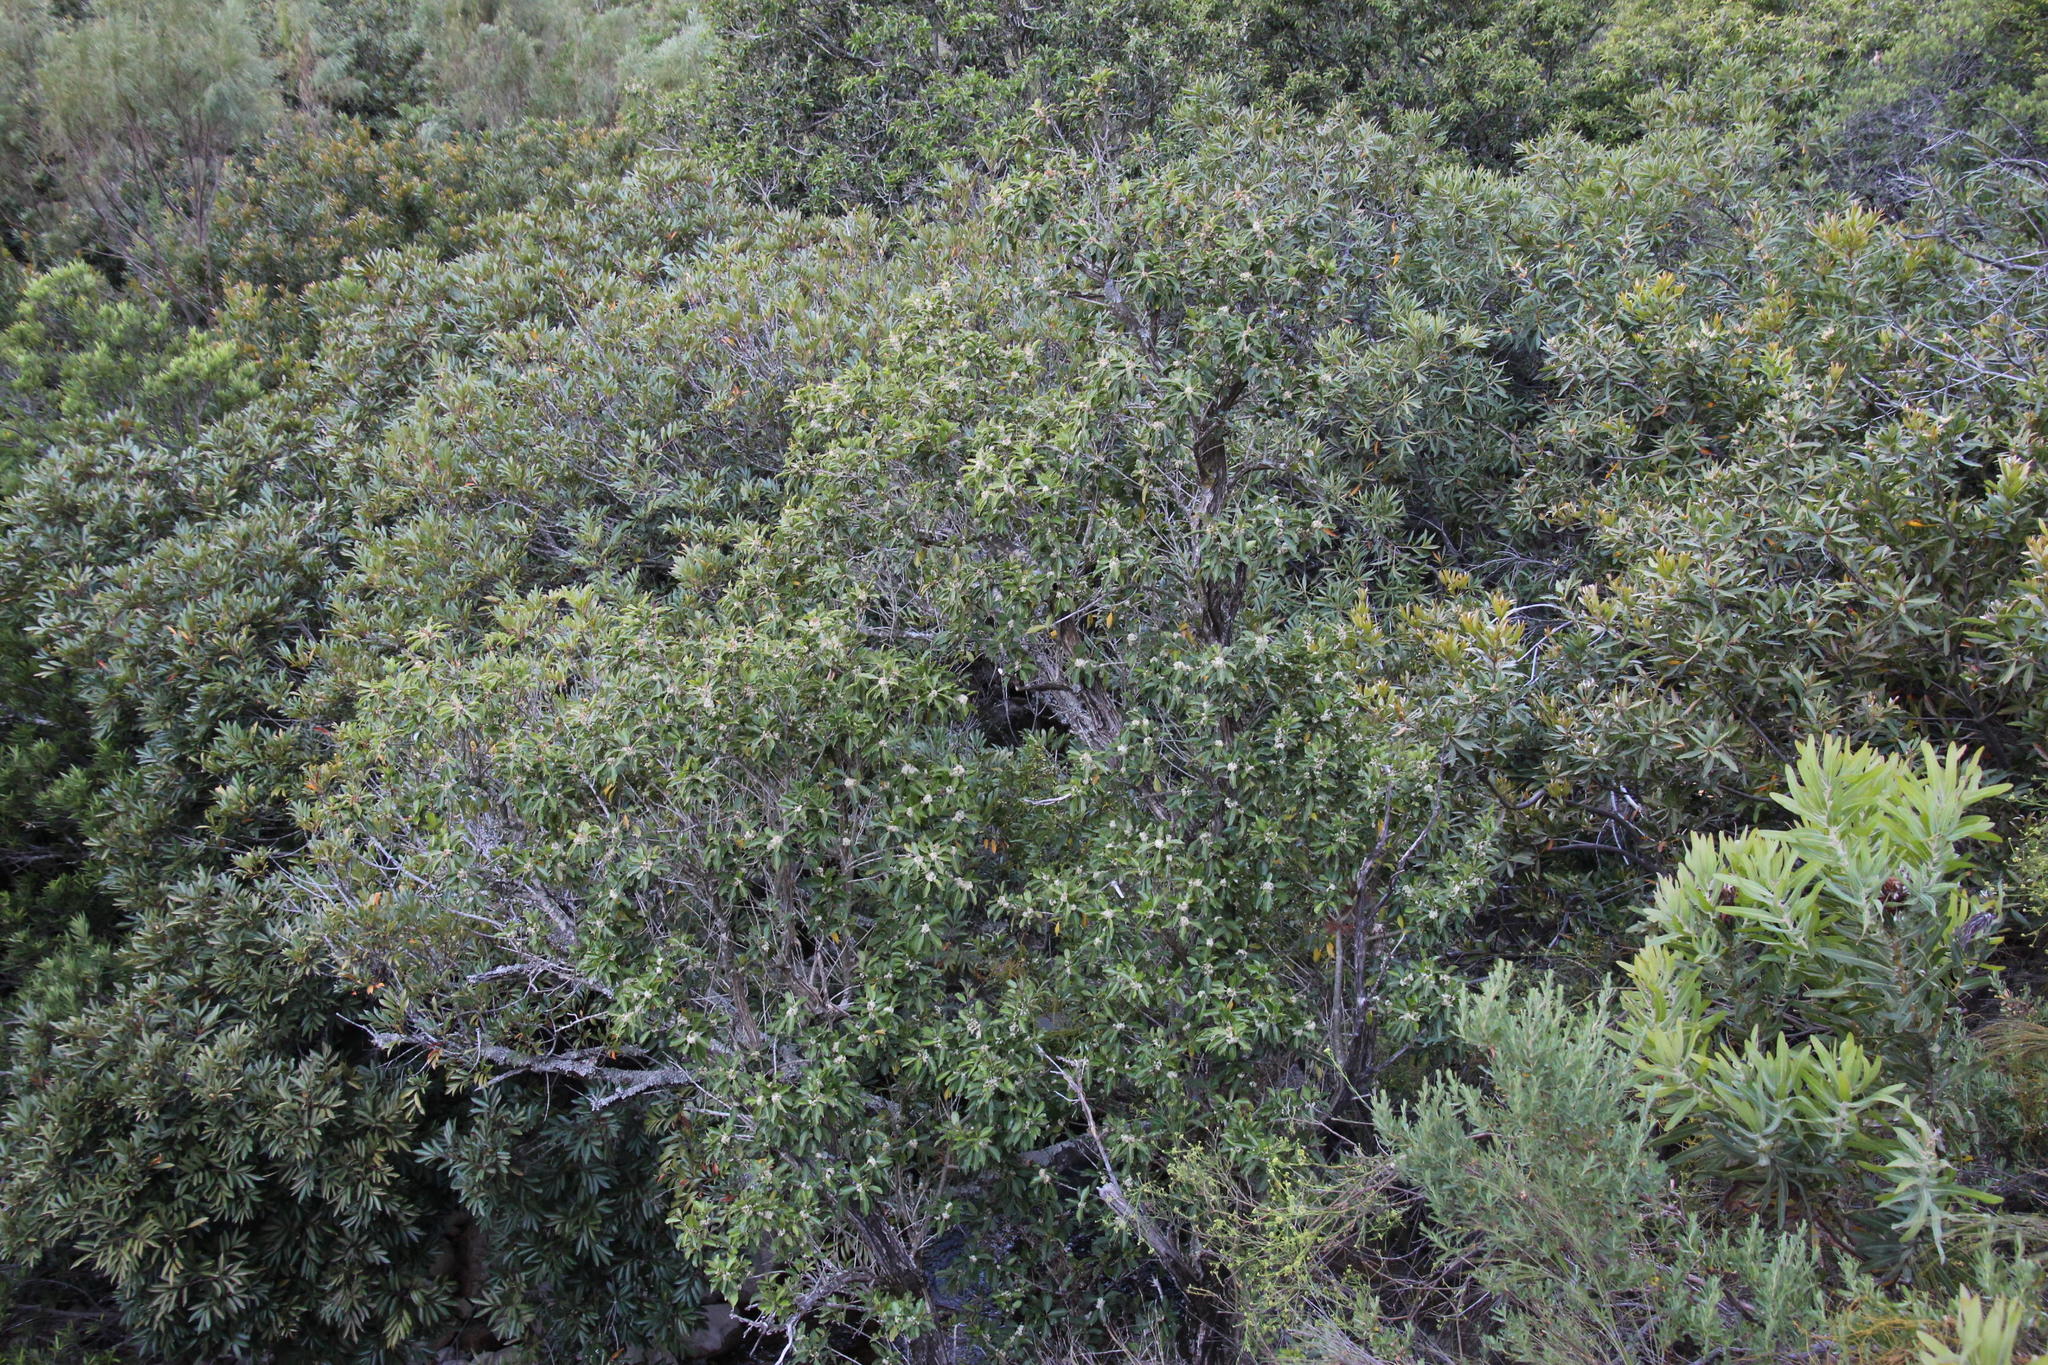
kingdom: Plantae
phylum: Tracheophyta
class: Magnoliopsida
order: Aquifoliales
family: Aquifoliaceae
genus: Ilex
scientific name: Ilex mitis
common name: African holly
